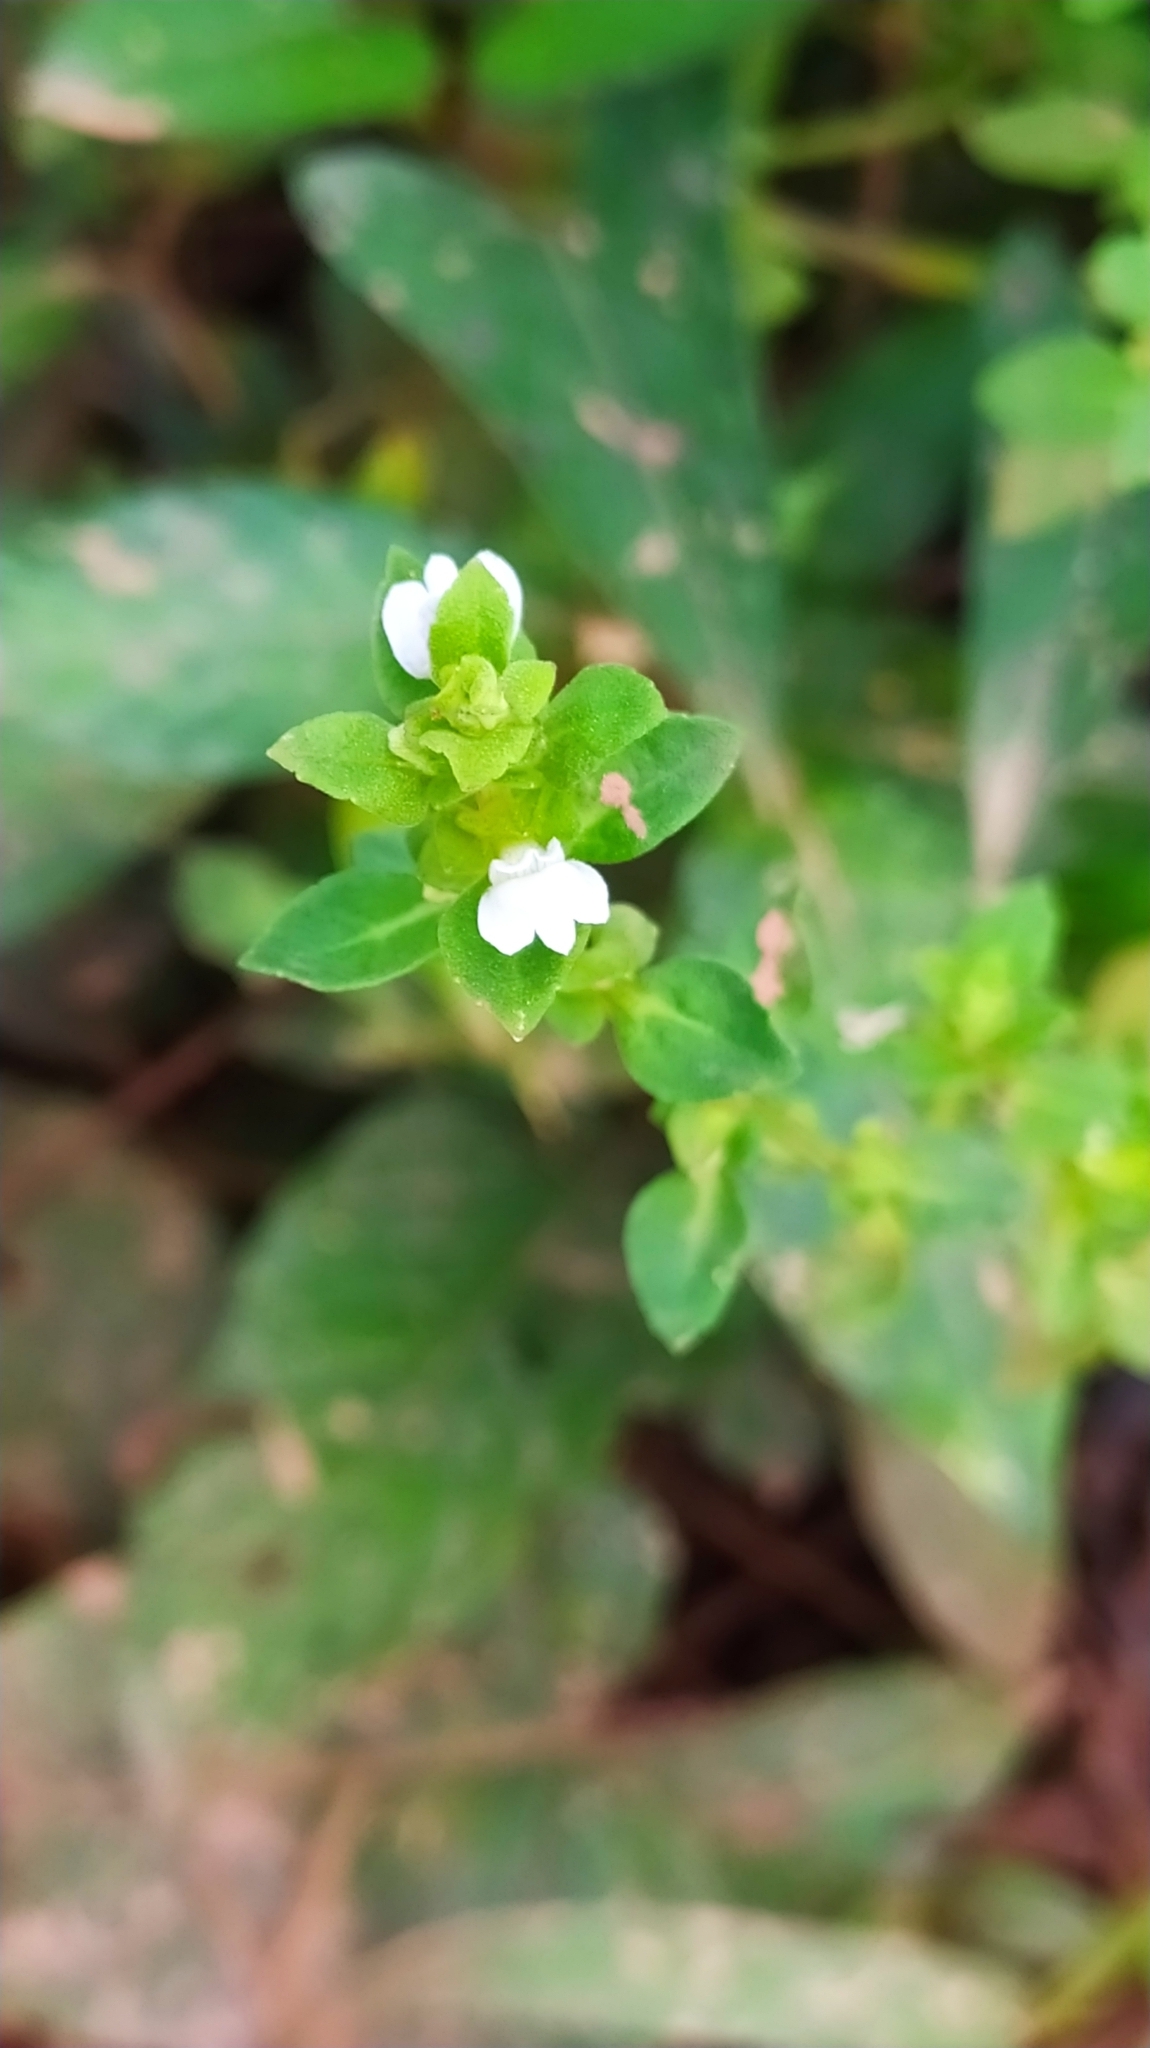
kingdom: Plantae
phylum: Tracheophyta
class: Magnoliopsida
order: Lamiales
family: Plantaginaceae
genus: Matourea
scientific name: Matourea pratensis
